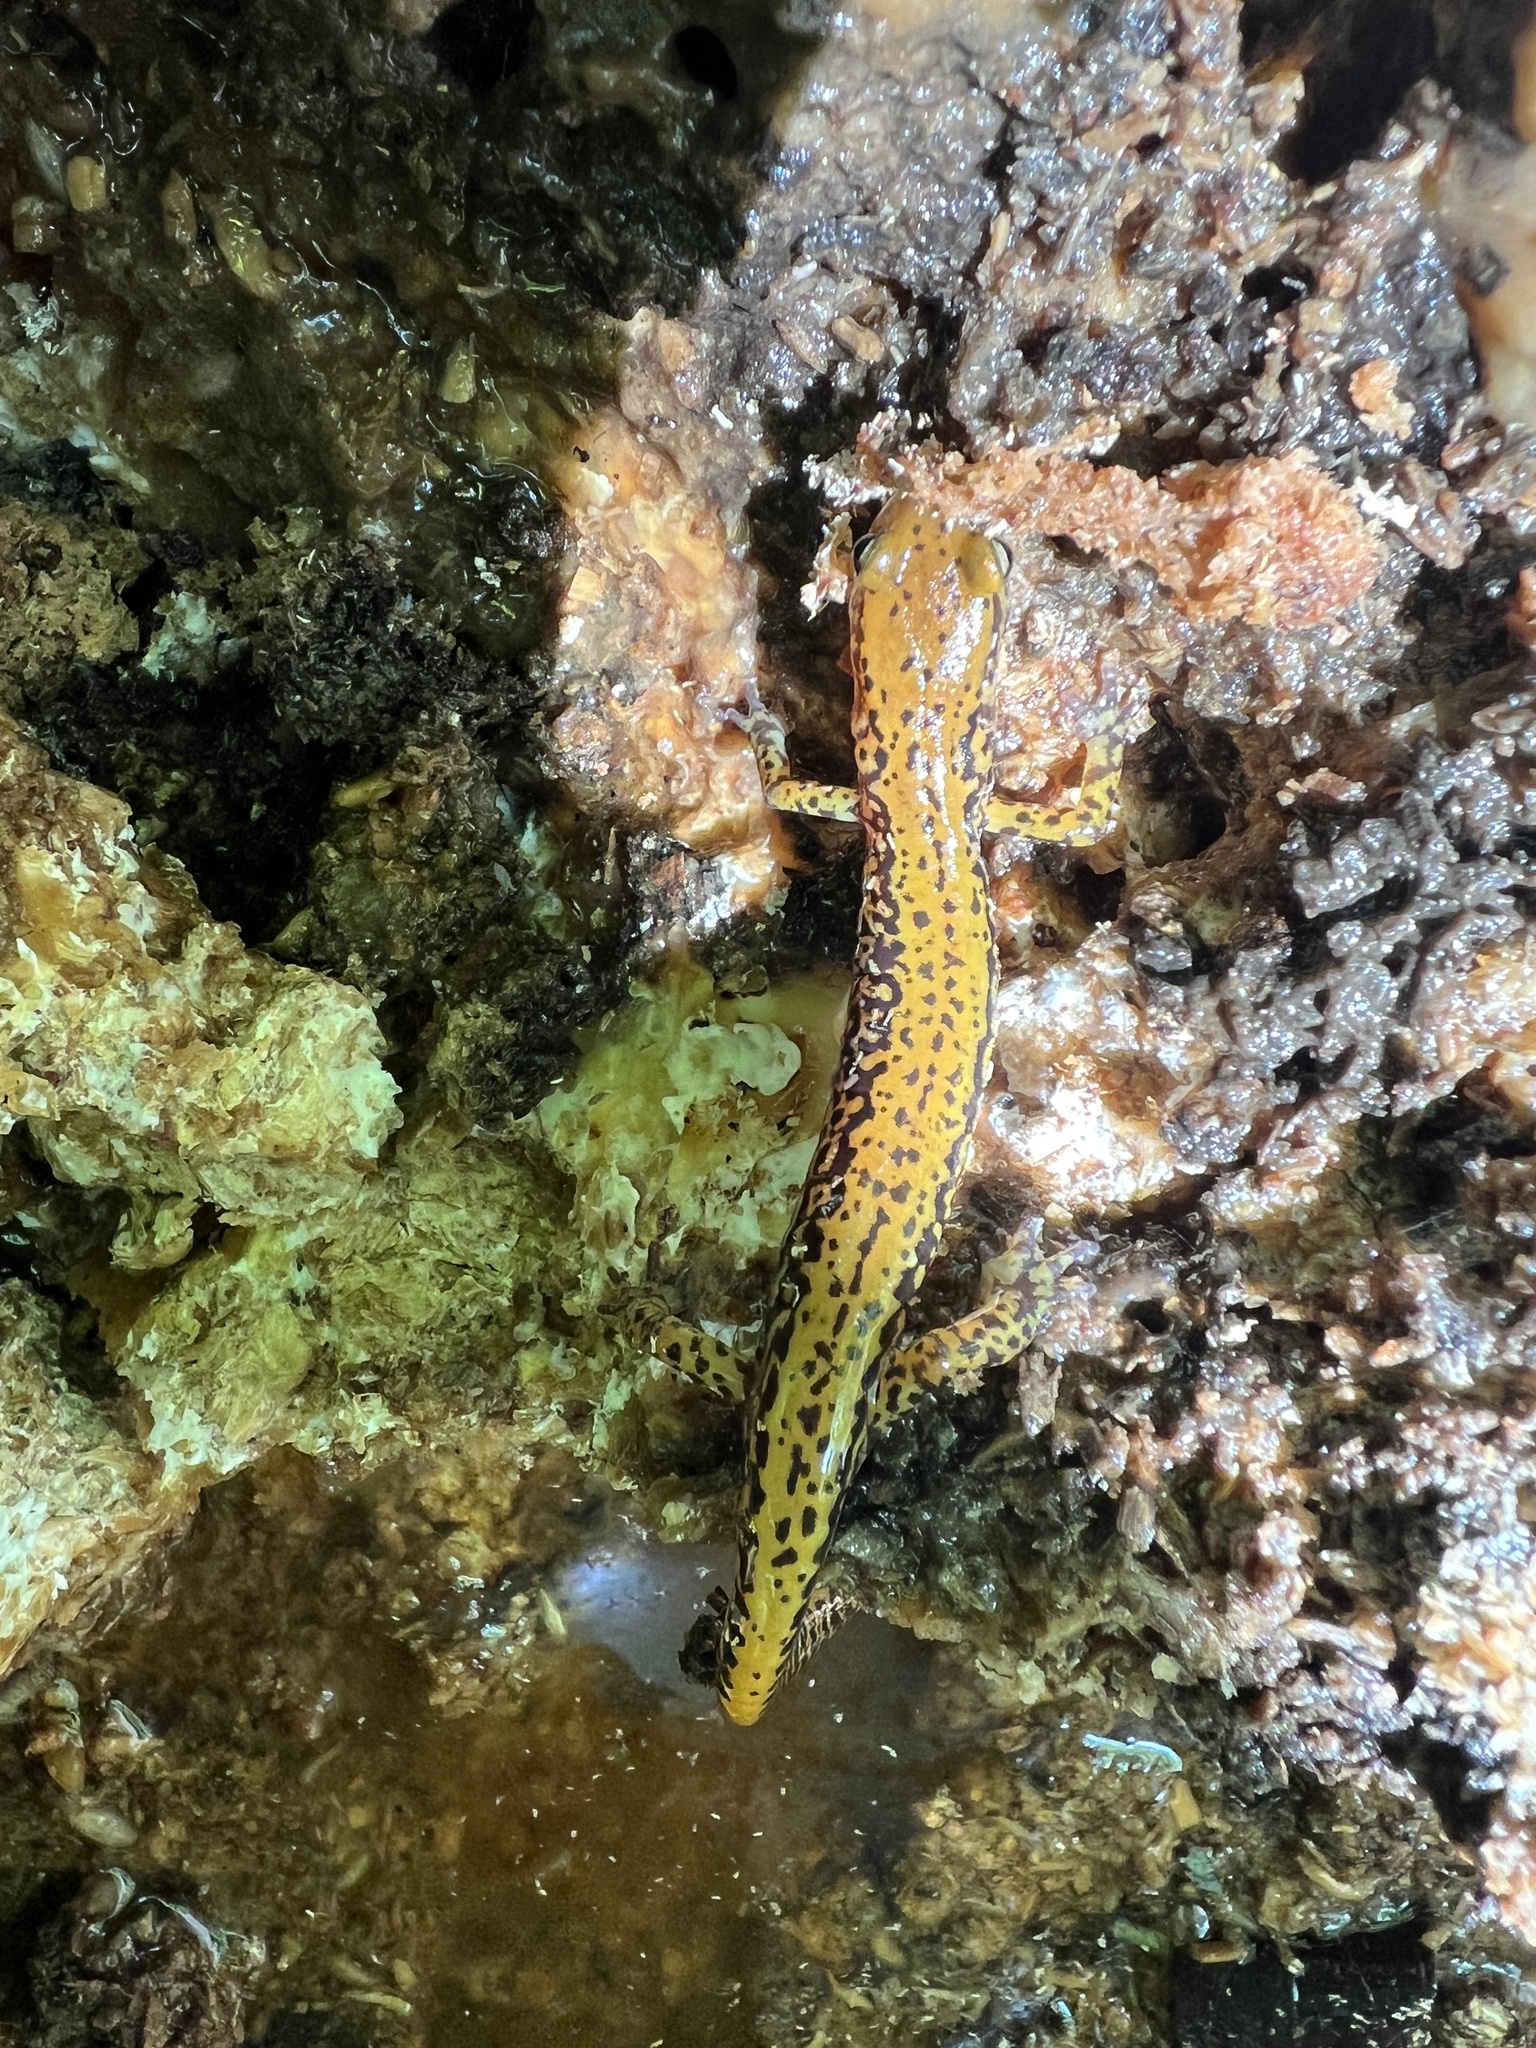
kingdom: Animalia
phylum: Chordata
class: Amphibia
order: Caudata
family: Plethodontidae
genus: Eurycea
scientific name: Eurycea longicauda
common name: Long-tailed salamander
